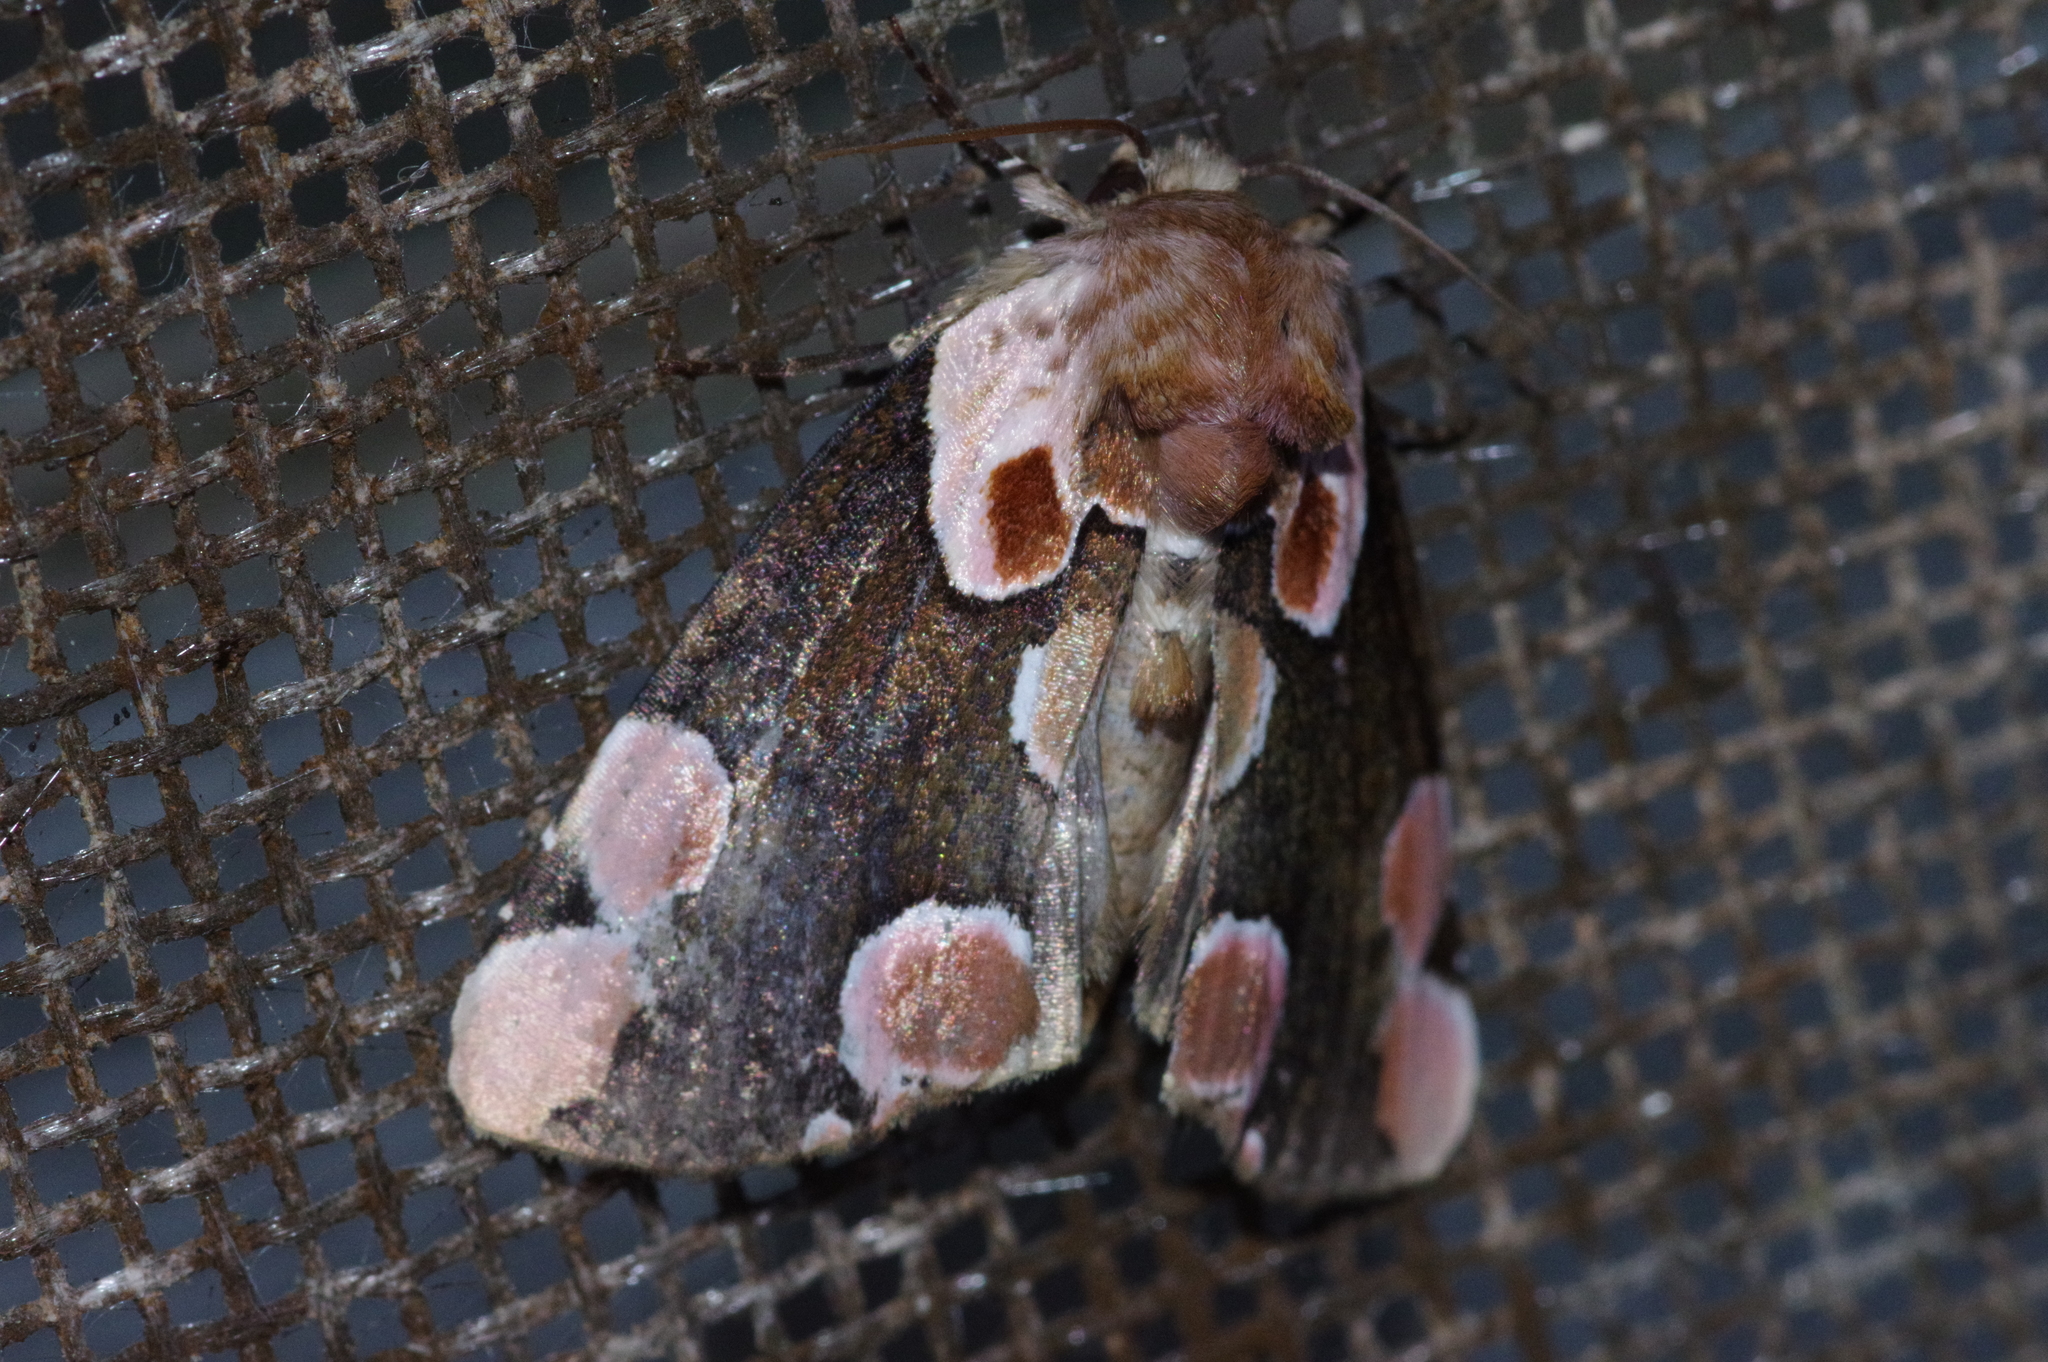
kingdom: Animalia
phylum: Arthropoda
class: Insecta
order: Lepidoptera
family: Drepanidae
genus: Thyatira
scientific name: Thyatira batis
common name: Peach blossom
